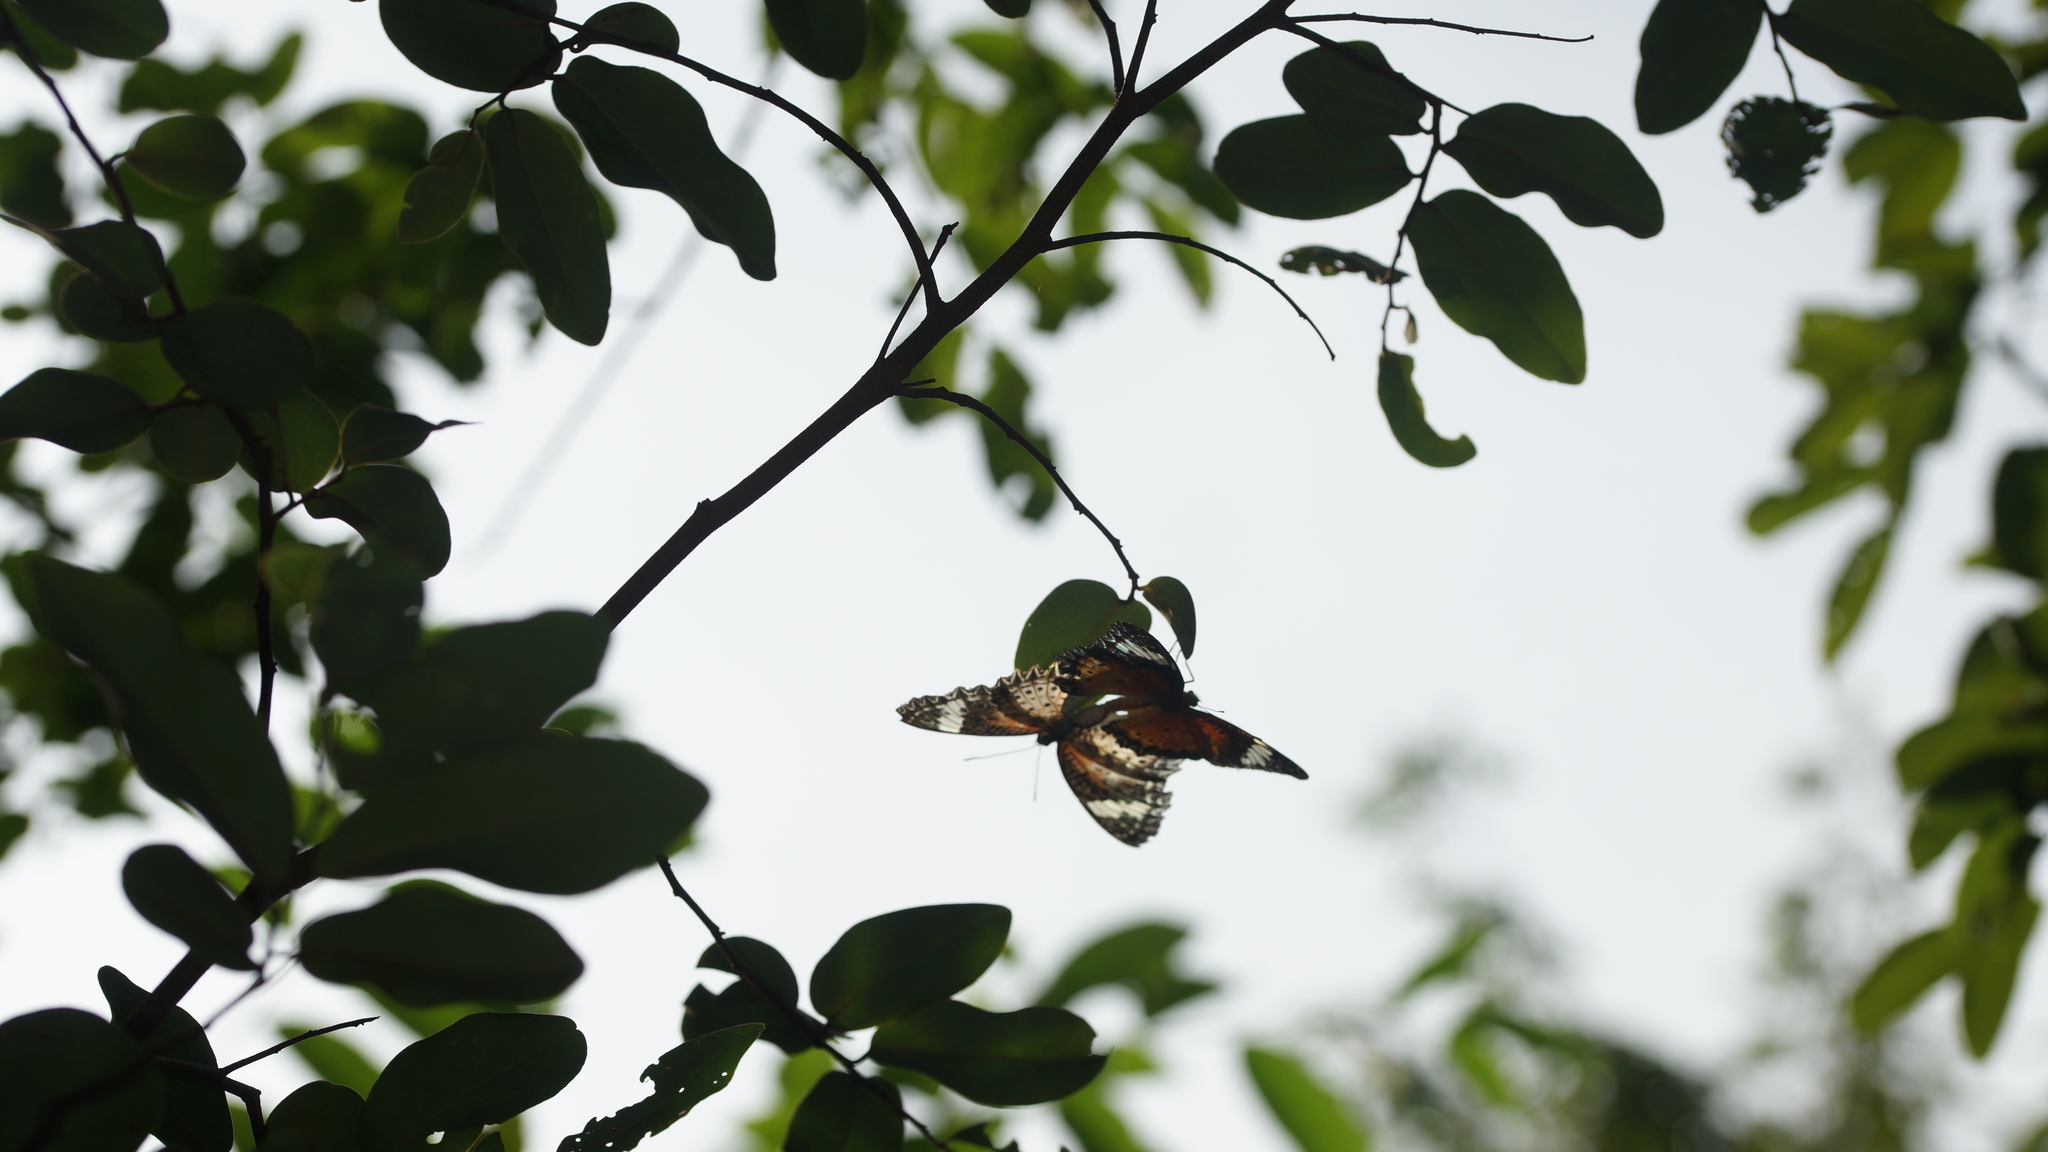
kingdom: Animalia
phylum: Arthropoda
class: Insecta
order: Lepidoptera
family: Nymphalidae
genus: Cethosia
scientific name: Cethosia cyane
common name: Leopard lacewing butterfly
